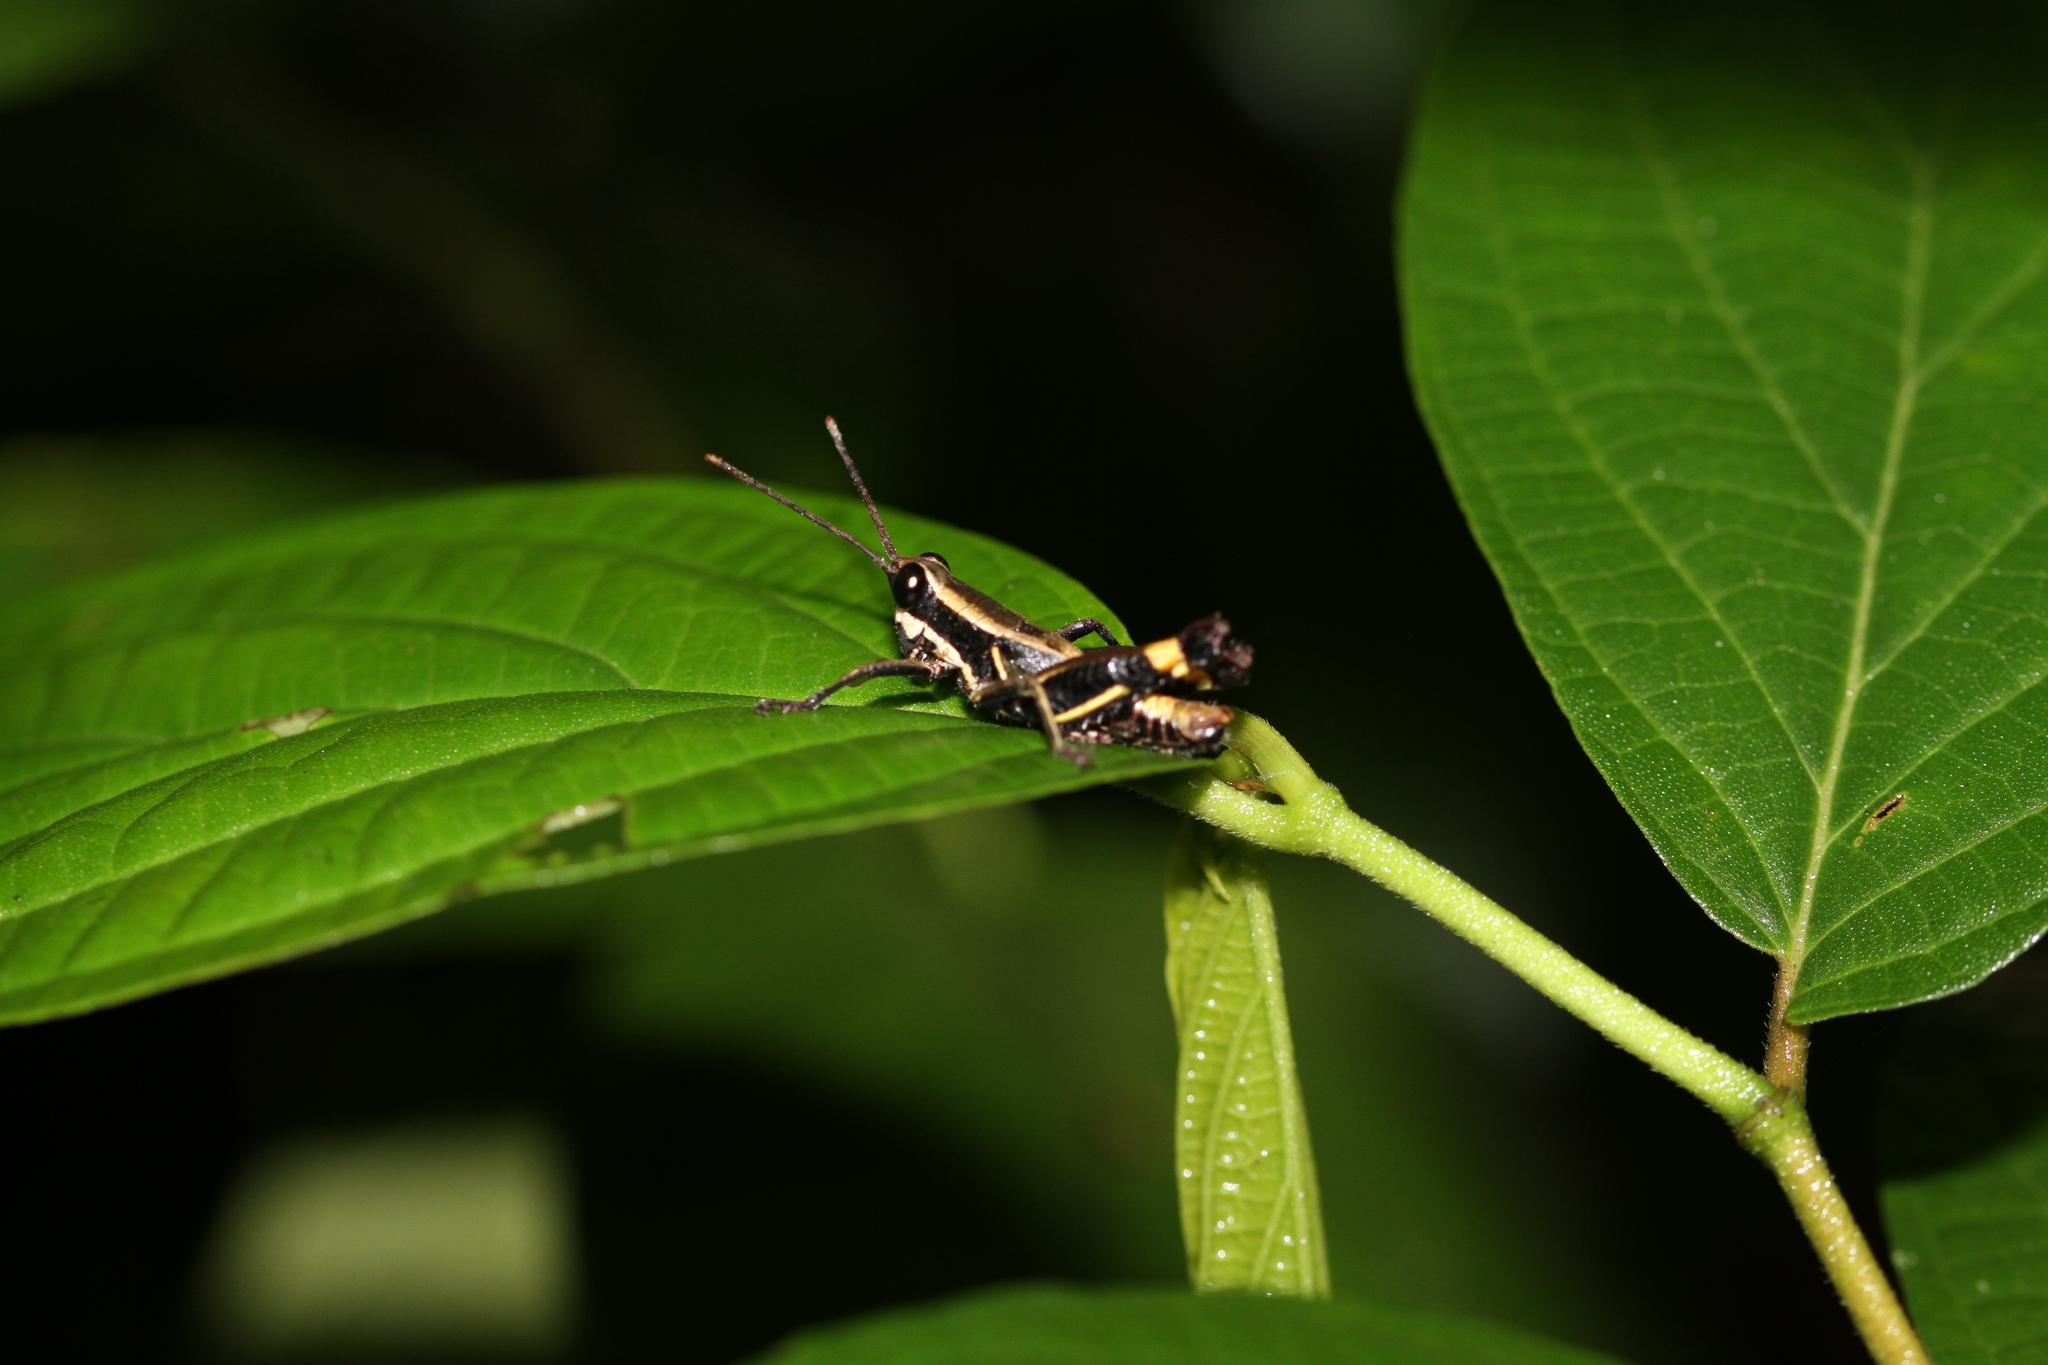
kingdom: Animalia
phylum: Arthropoda
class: Insecta
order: Orthoptera
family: Acrididae
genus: Traulia
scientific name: Traulia flavoannulata
